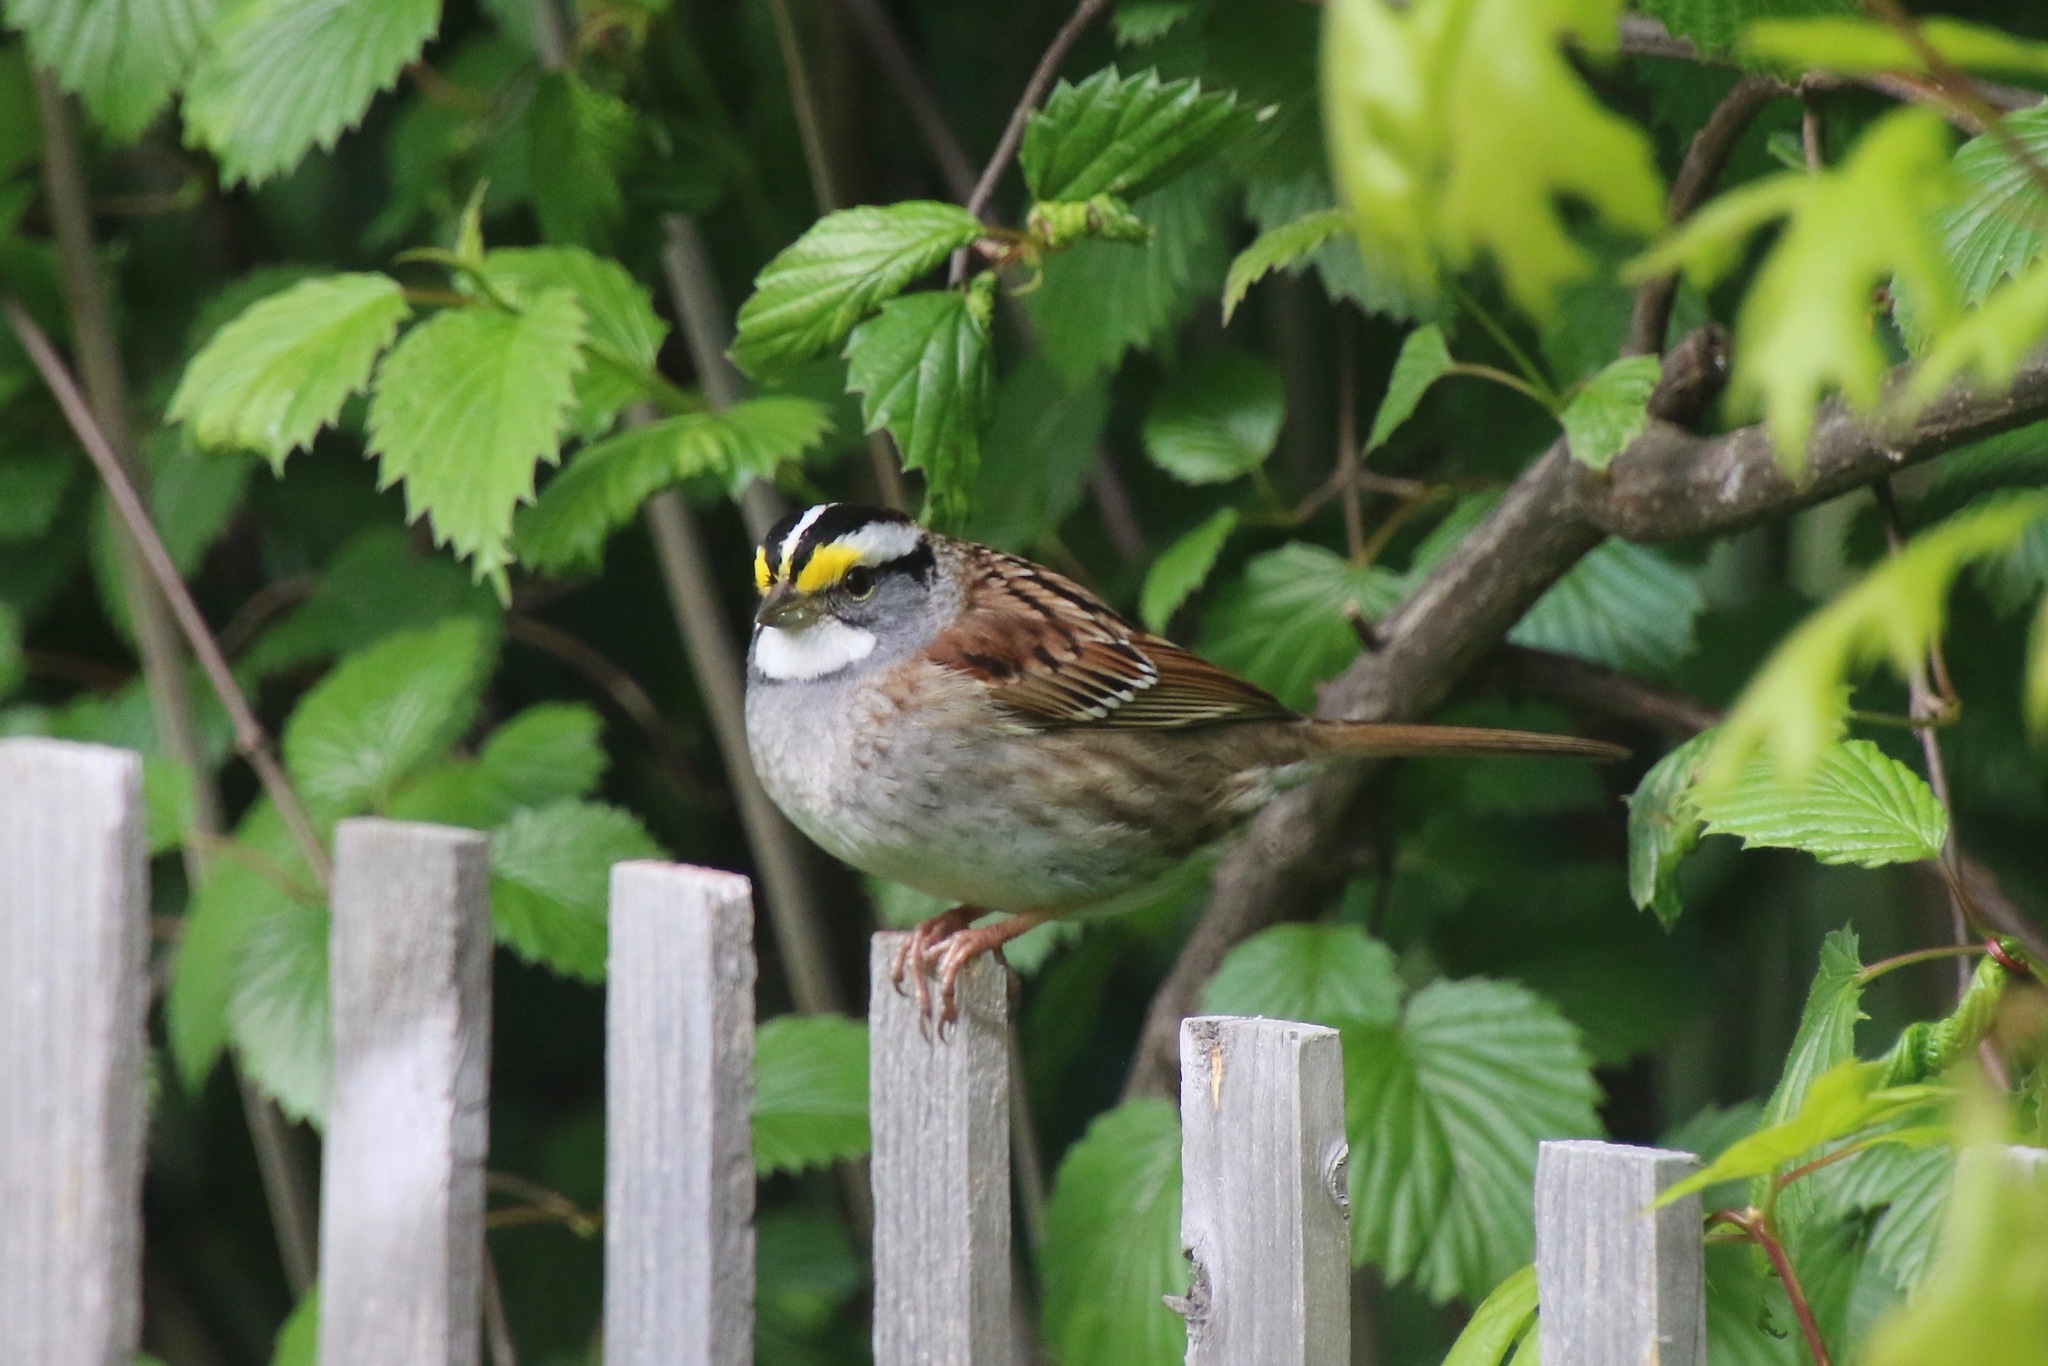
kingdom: Animalia
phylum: Chordata
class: Aves
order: Passeriformes
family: Passerellidae
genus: Zonotrichia
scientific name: Zonotrichia albicollis
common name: White-throated sparrow
